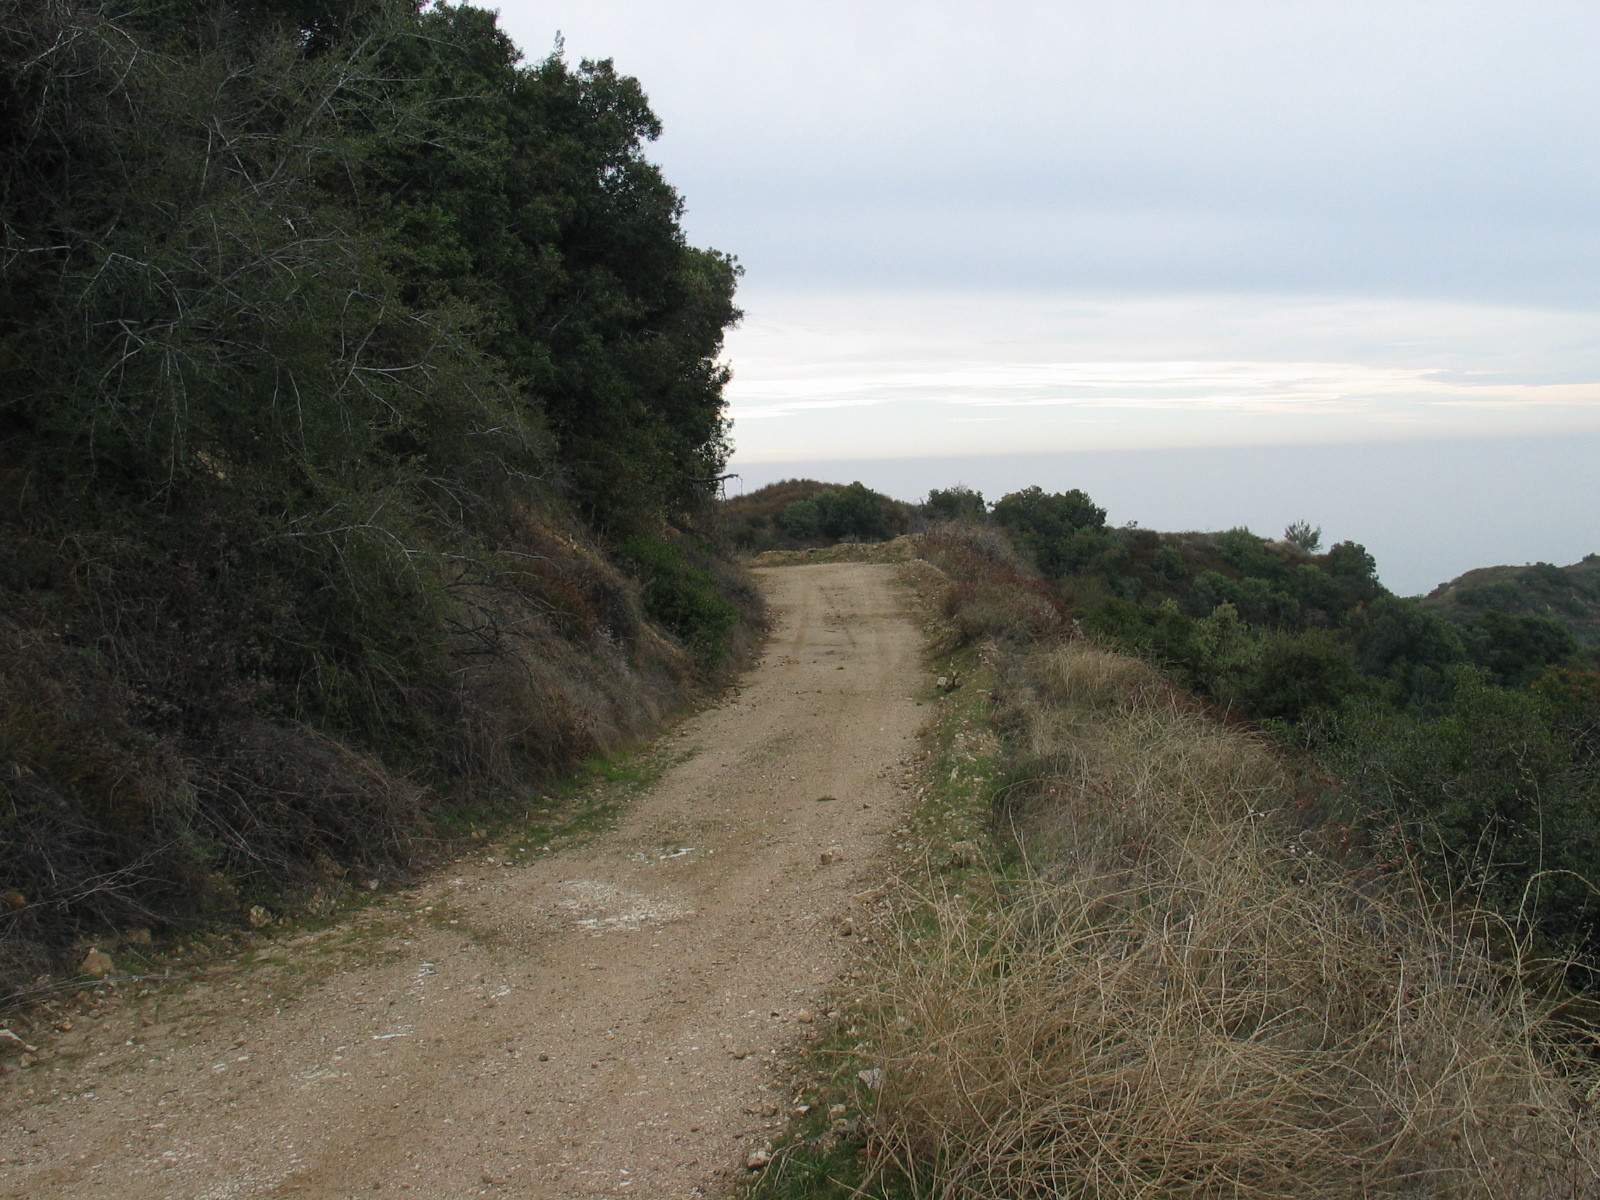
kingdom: Plantae
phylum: Tracheophyta
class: Magnoliopsida
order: Caryophyllales
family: Polygonaceae
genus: Eriogonum
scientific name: Eriogonum fasciculatum
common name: California wild buckwheat
